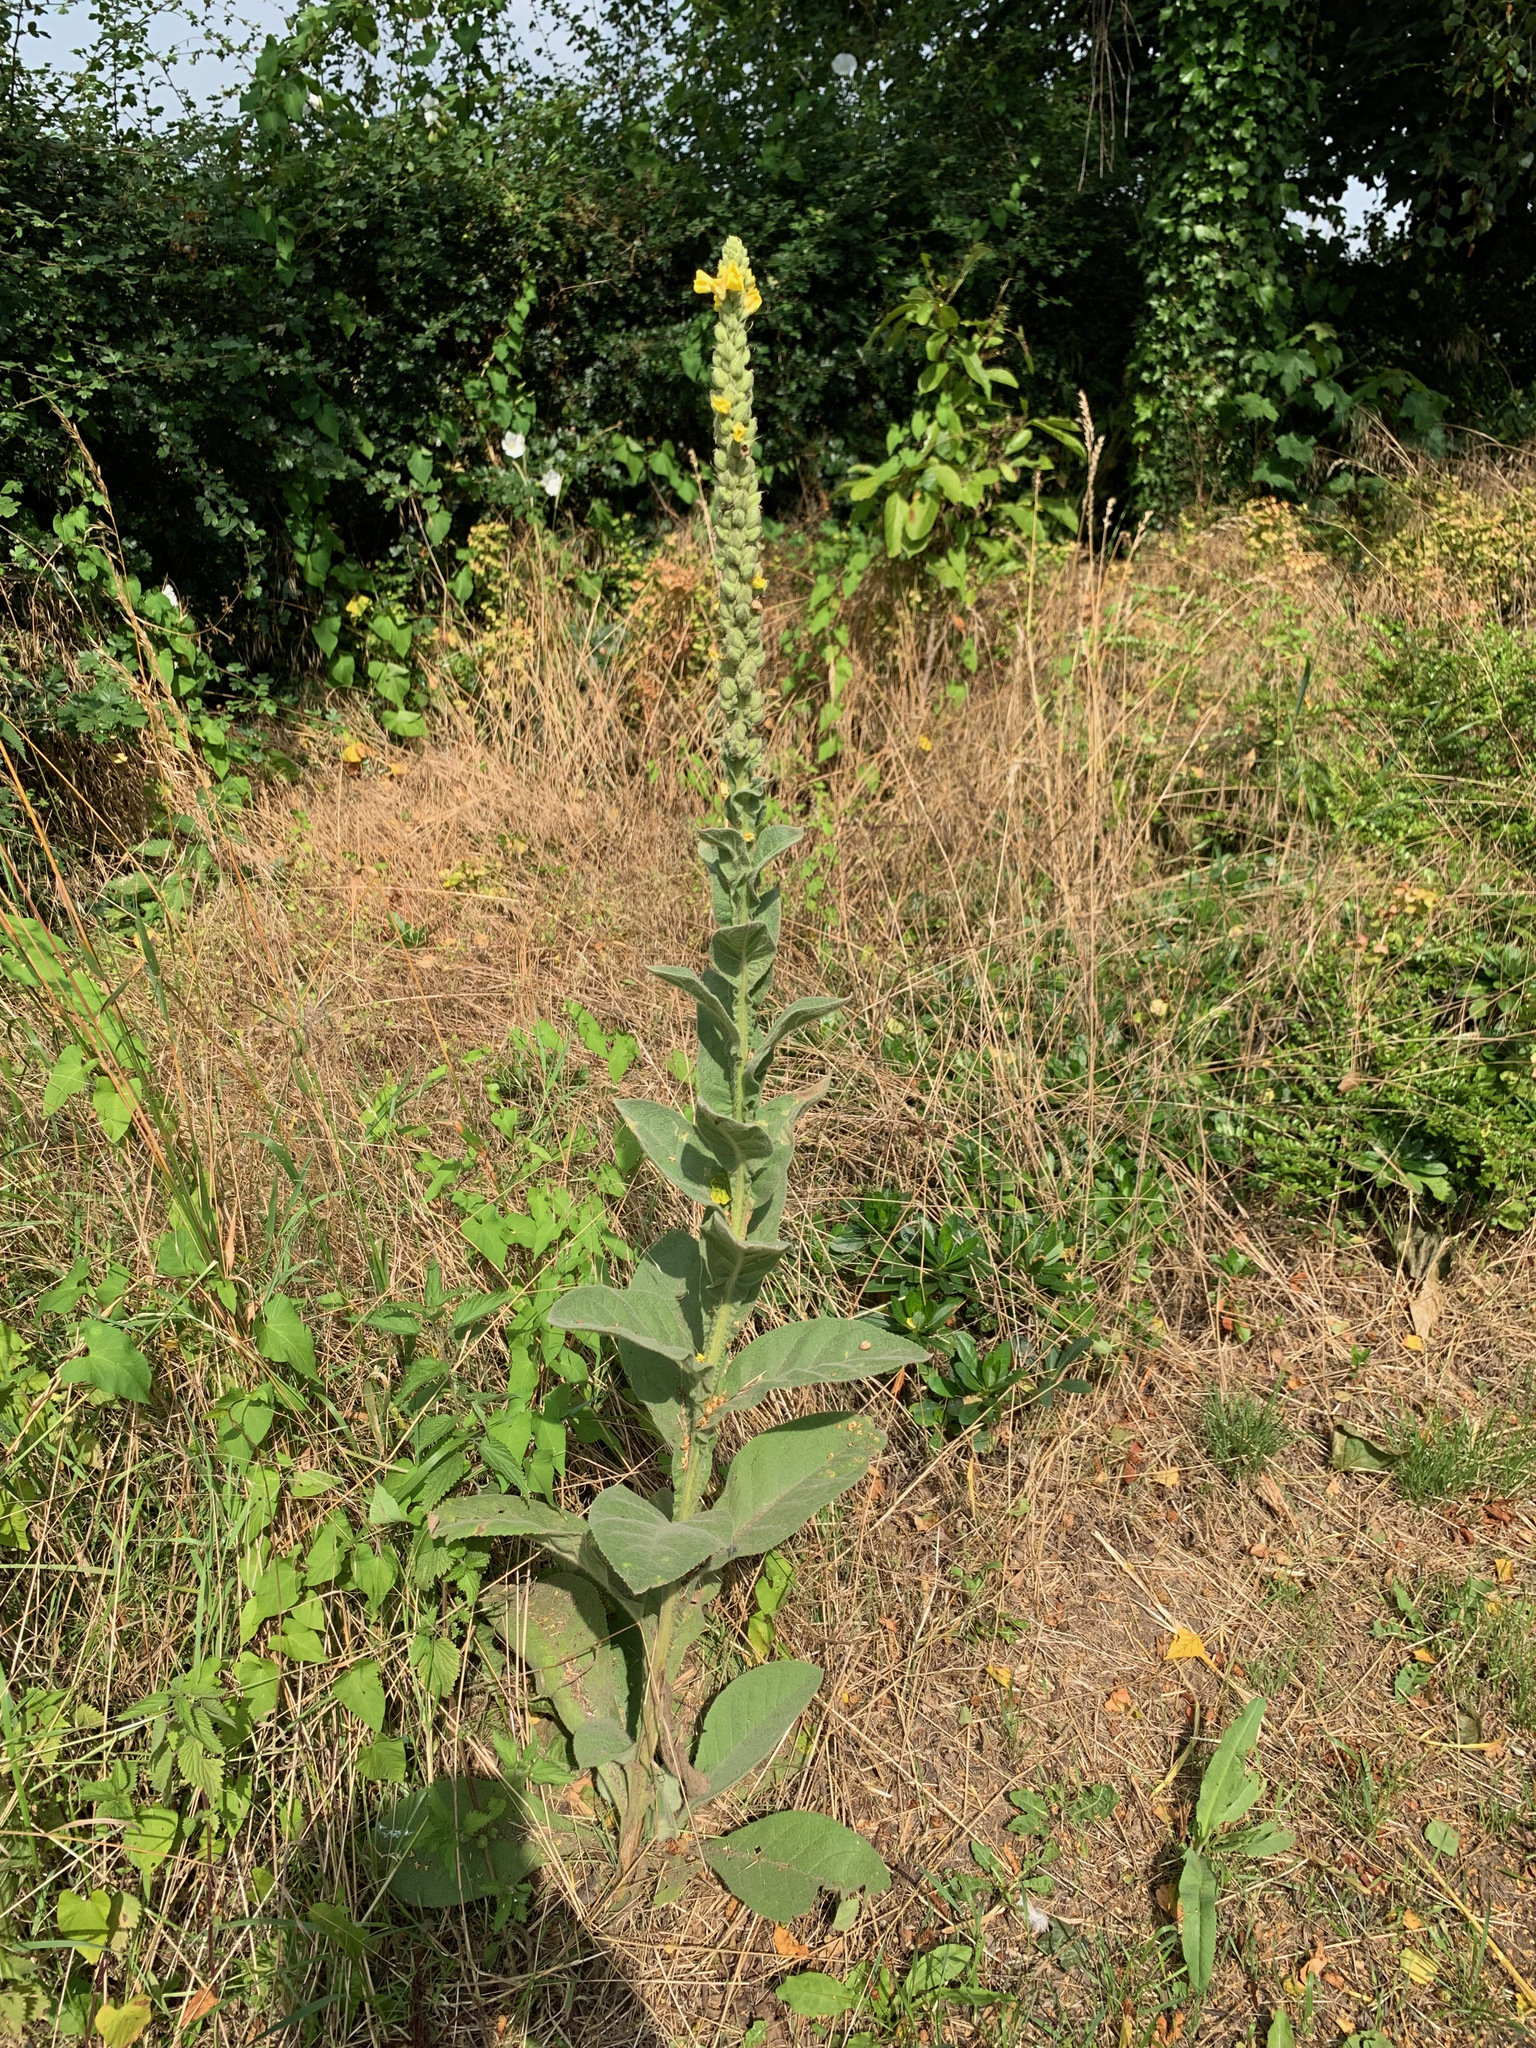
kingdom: Plantae
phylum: Tracheophyta
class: Magnoliopsida
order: Lamiales
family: Scrophulariaceae
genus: Verbascum
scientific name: Verbascum thapsus
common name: Common mullein
